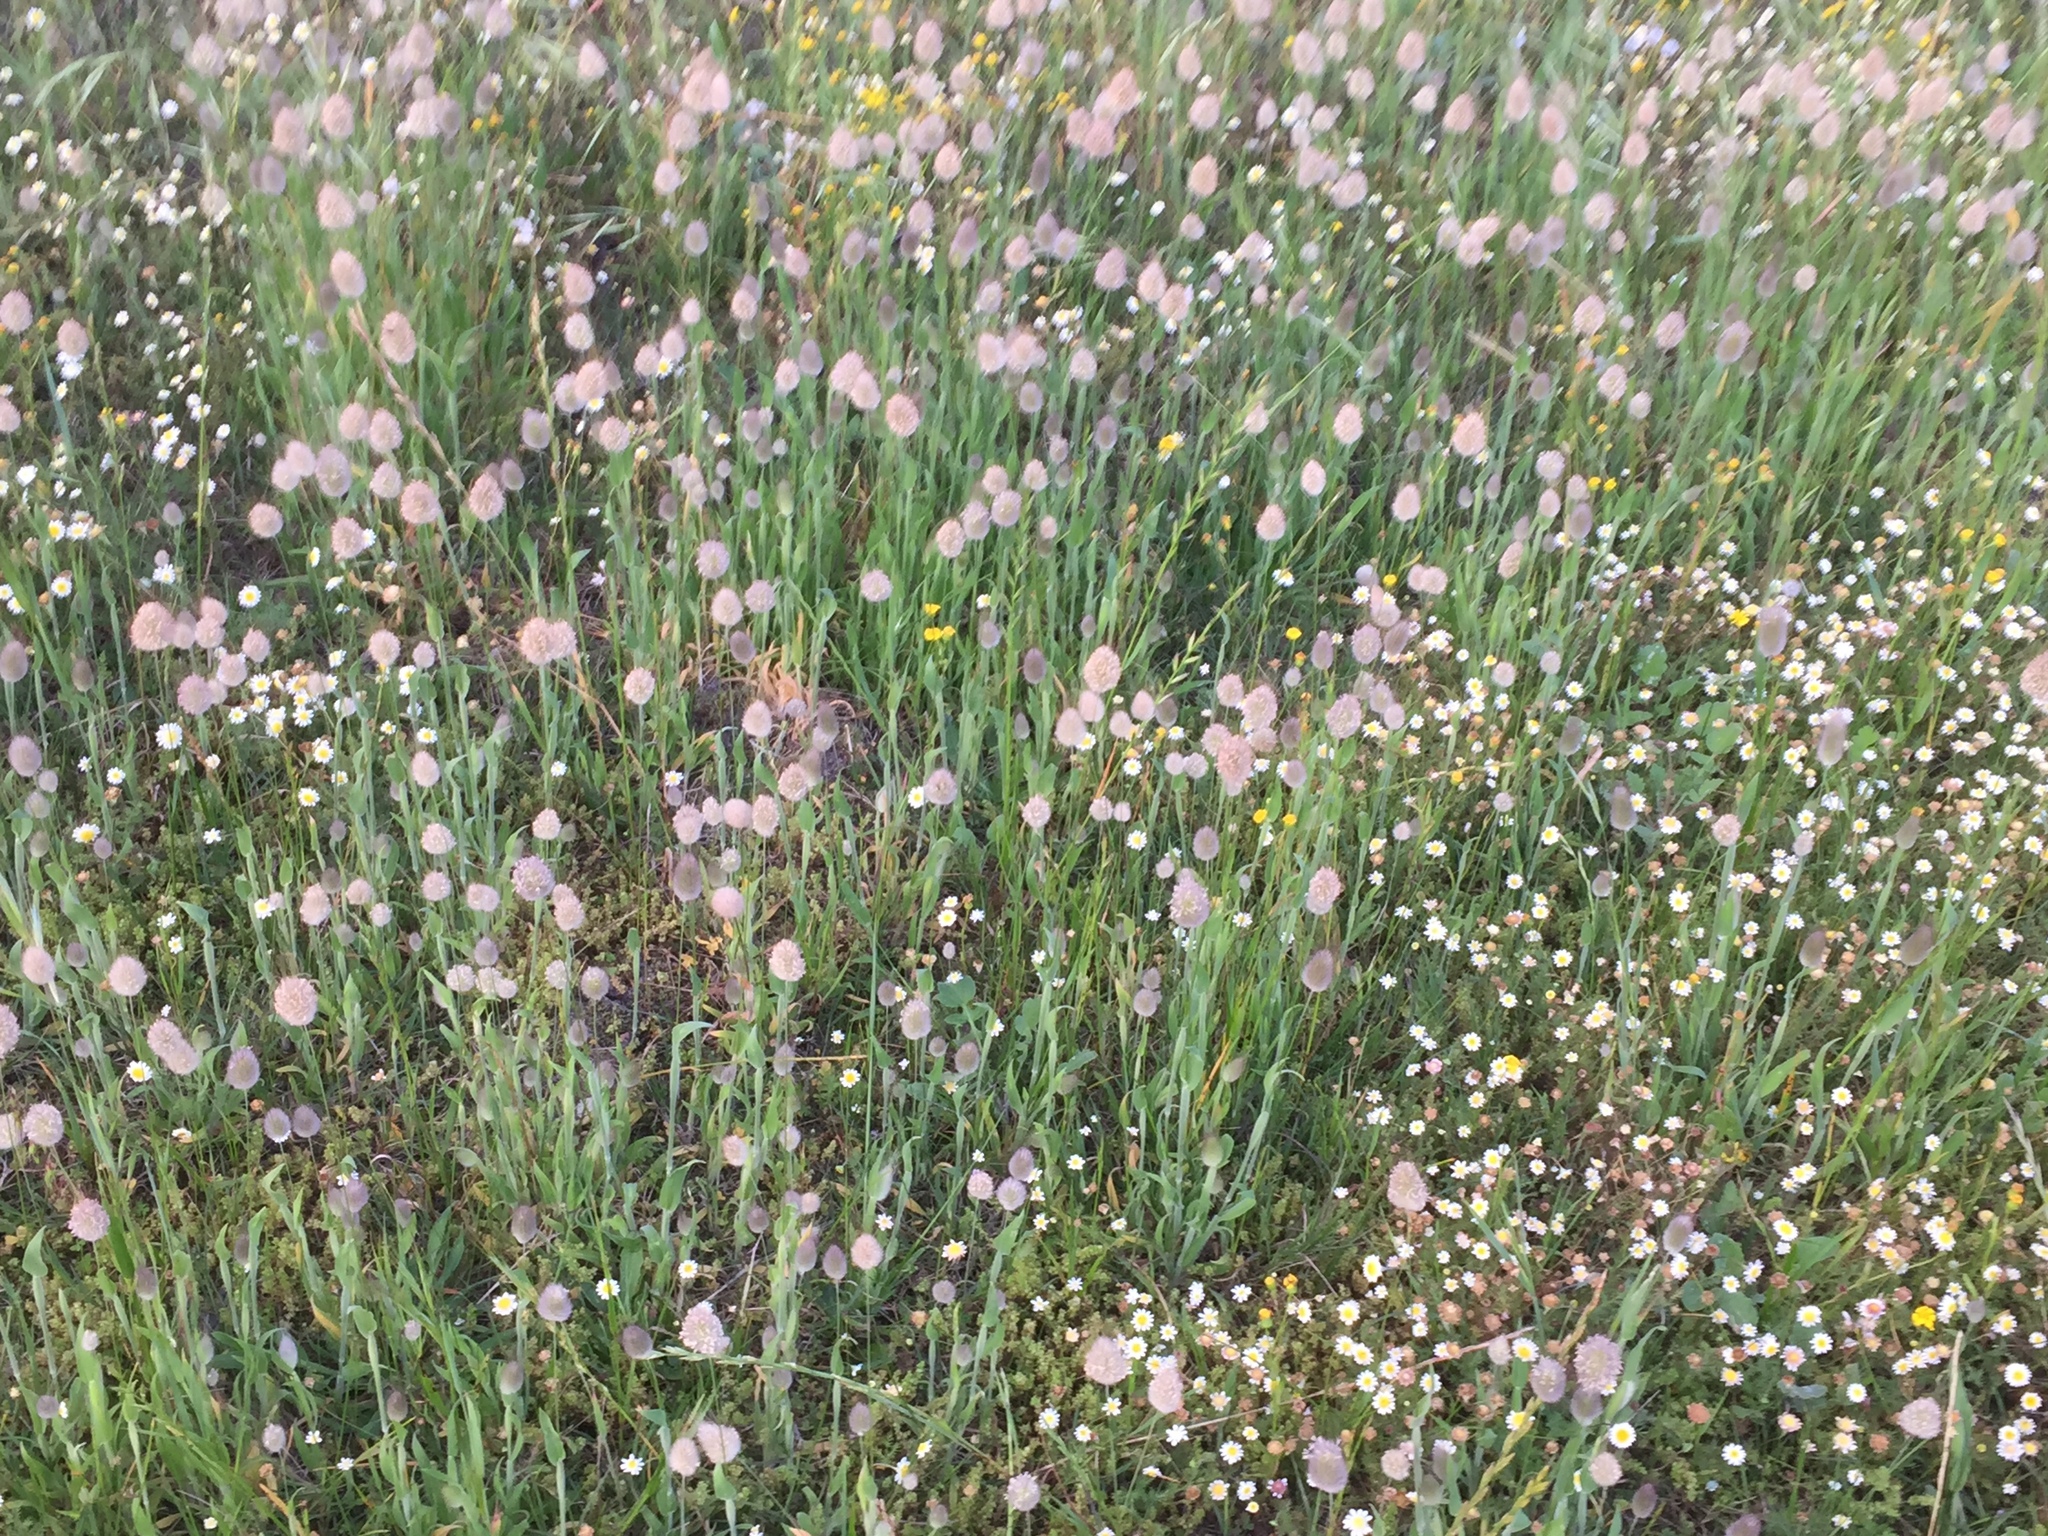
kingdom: Plantae
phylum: Tracheophyta
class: Liliopsida
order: Poales
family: Poaceae
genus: Lagurus
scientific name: Lagurus ovatus
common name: Hare's-tail
